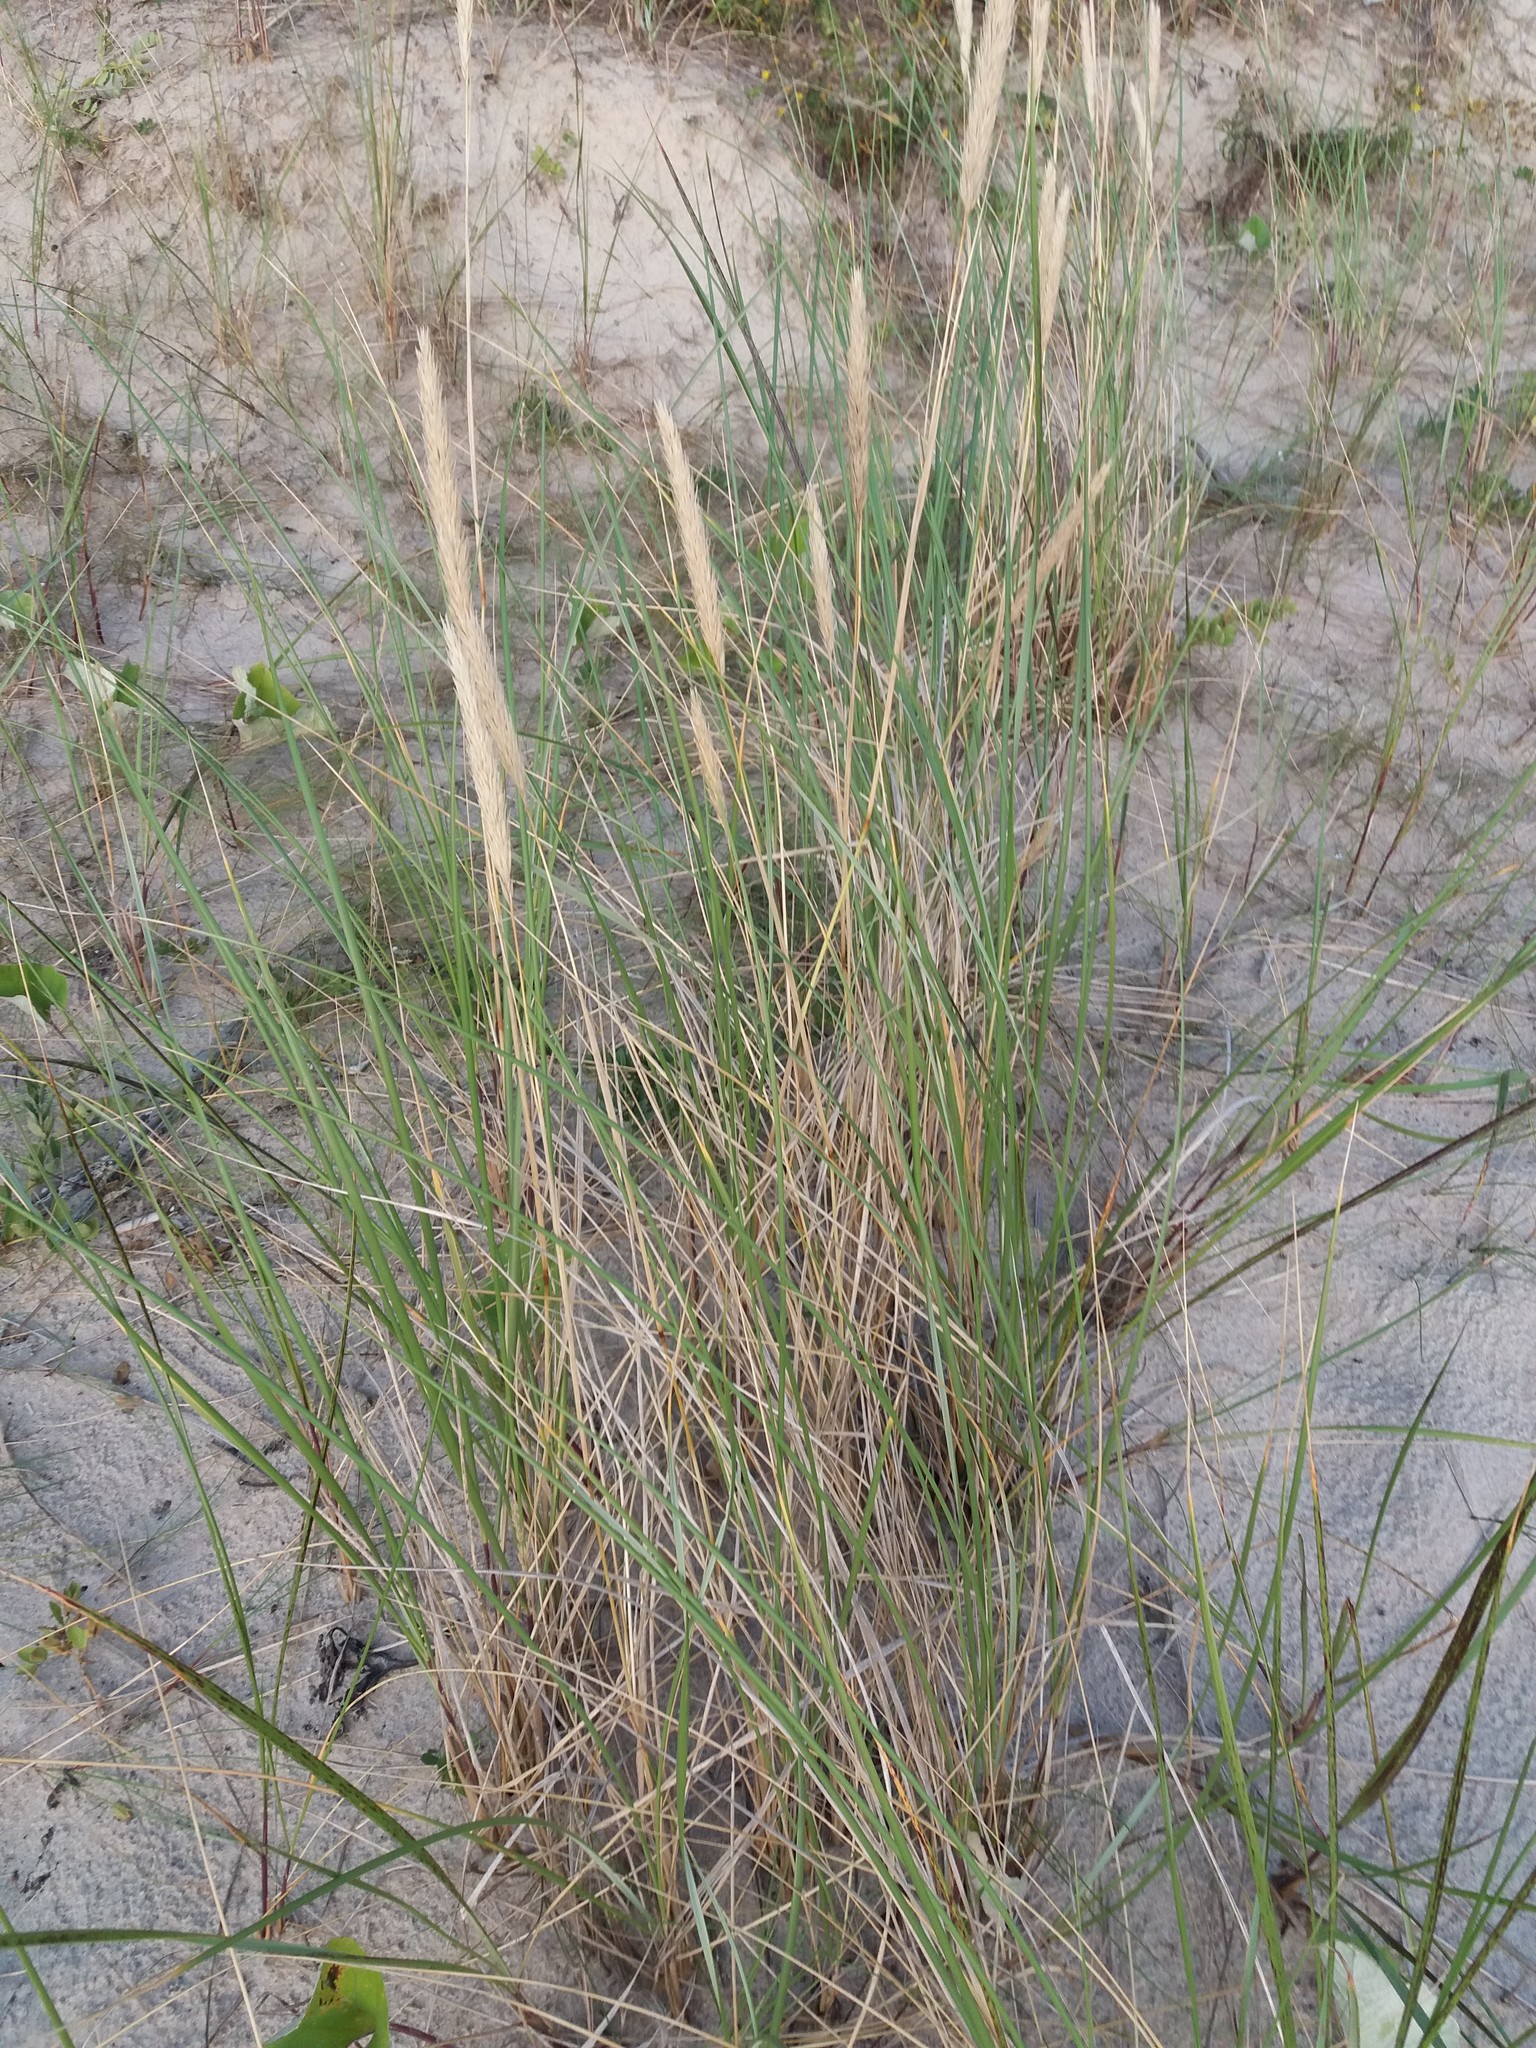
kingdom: Plantae
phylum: Tracheophyta
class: Liliopsida
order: Poales
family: Poaceae
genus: Calamagrostis
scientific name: Calamagrostis arenaria
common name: European beachgrass
